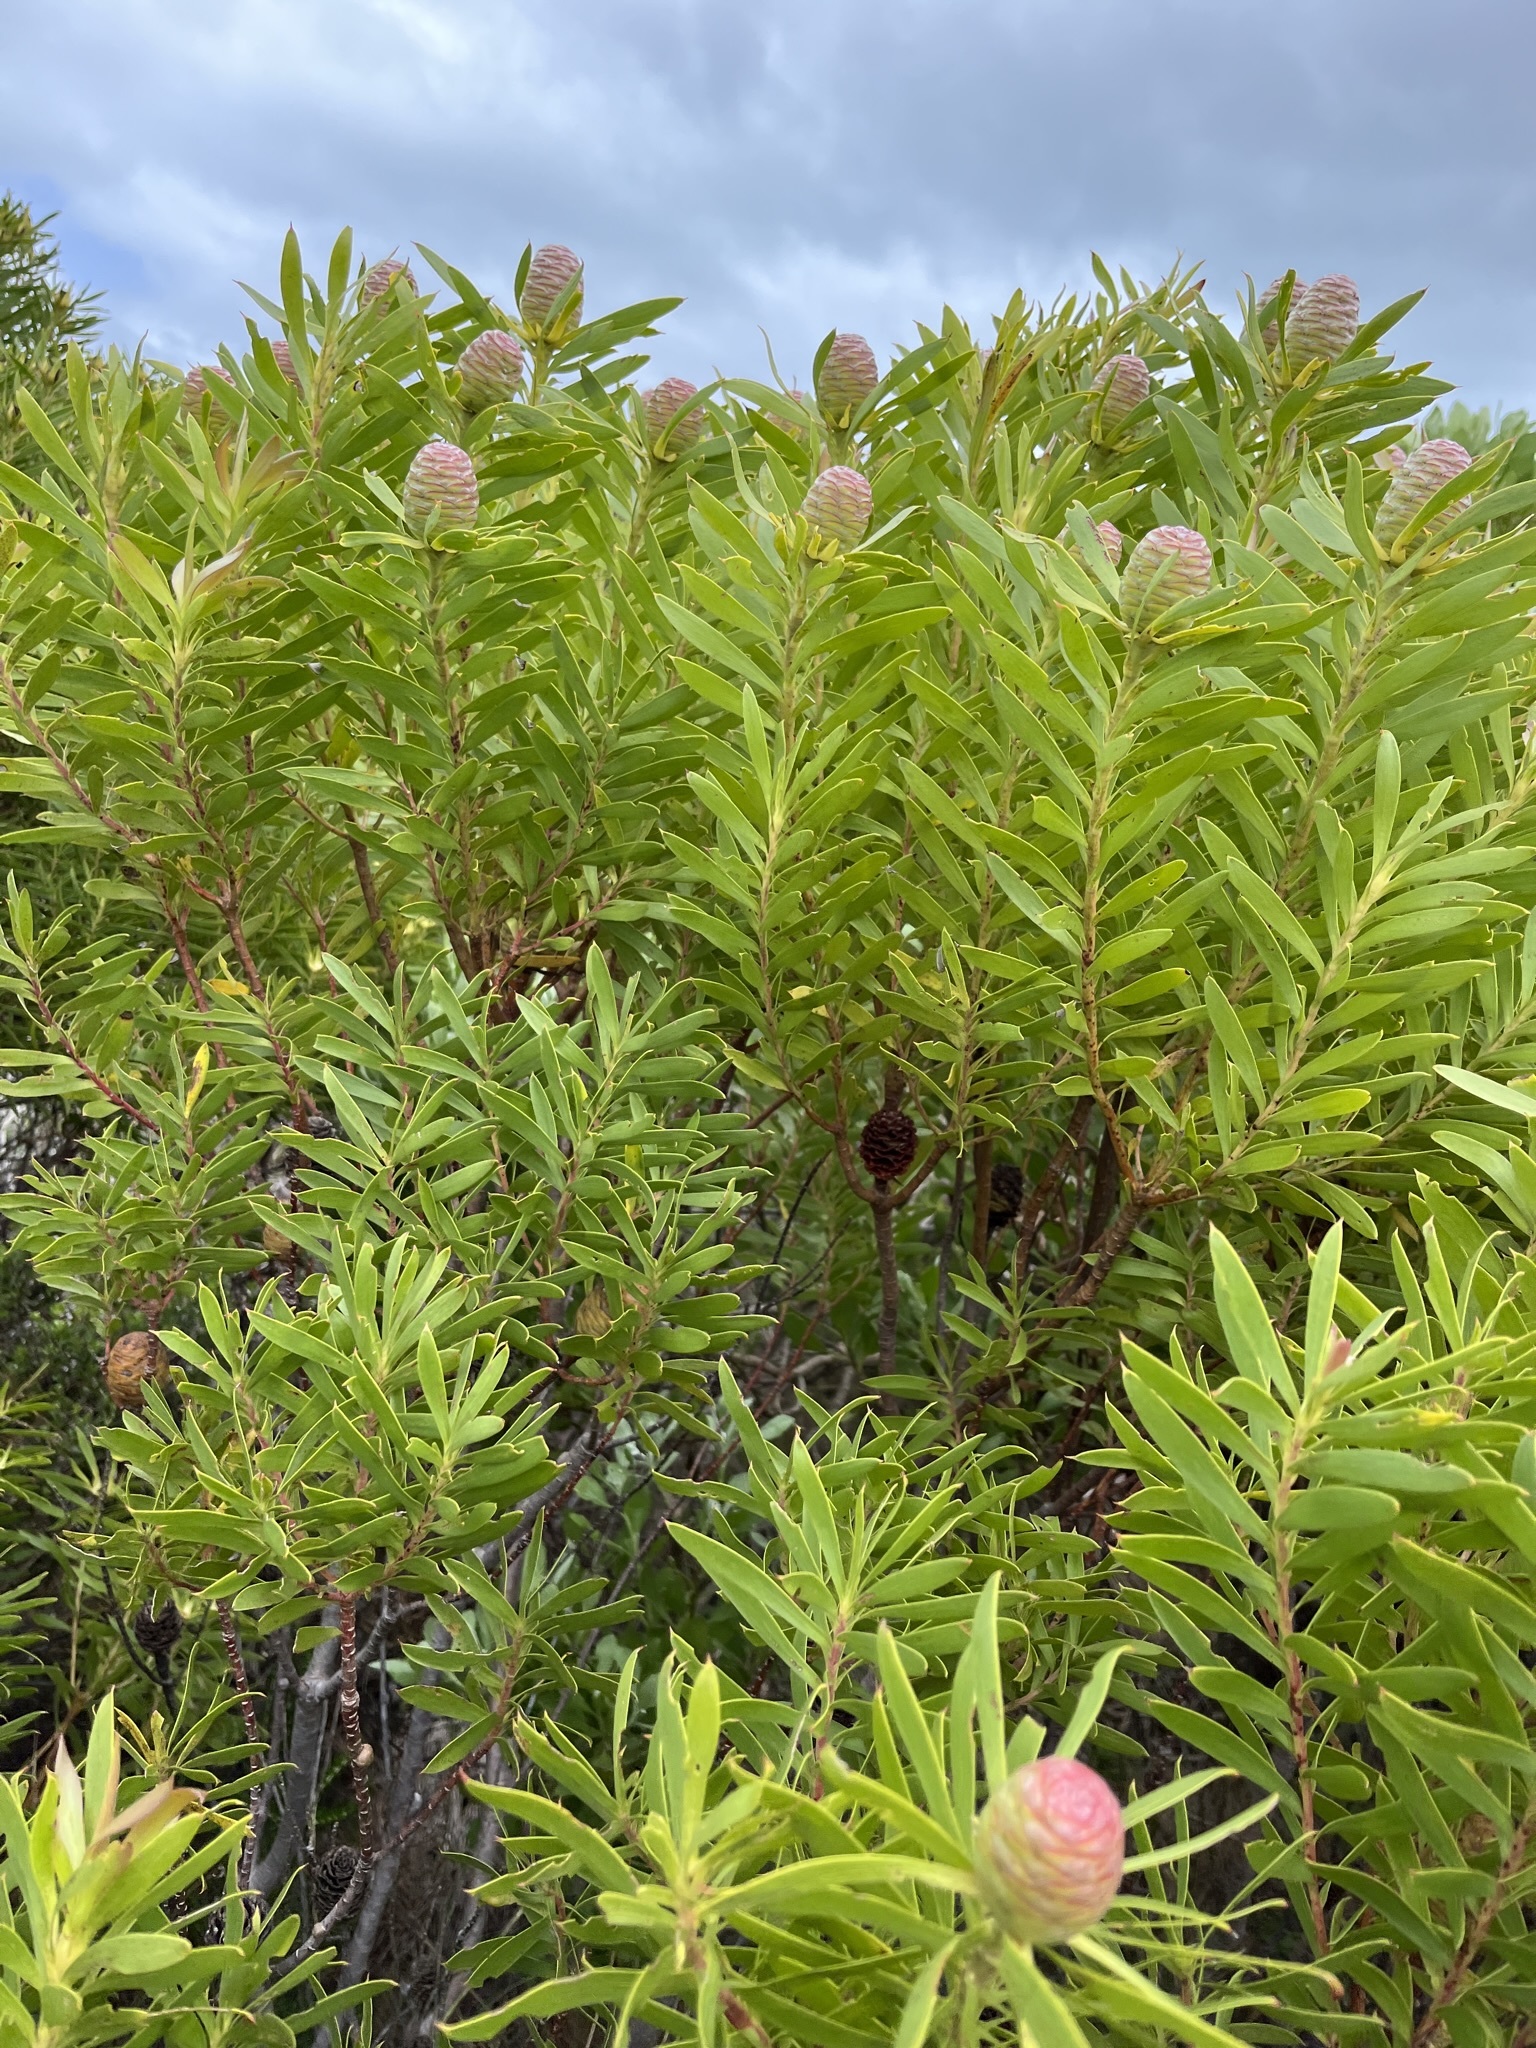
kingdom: Plantae
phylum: Tracheophyta
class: Magnoliopsida
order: Proteales
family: Proteaceae
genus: Leucadendron
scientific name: Leucadendron coniferum
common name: Dune conebush
